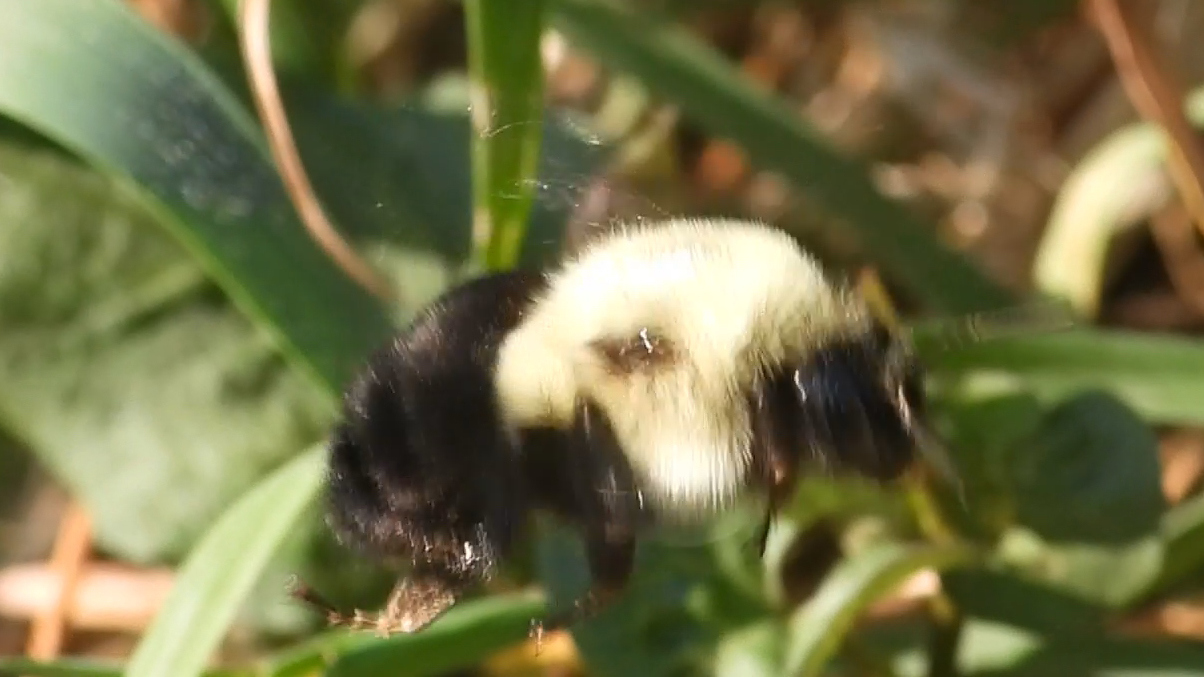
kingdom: Animalia
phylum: Arthropoda
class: Insecta
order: Hymenoptera
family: Apidae
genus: Bombus
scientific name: Bombus impatiens
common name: Common eastern bumble bee
